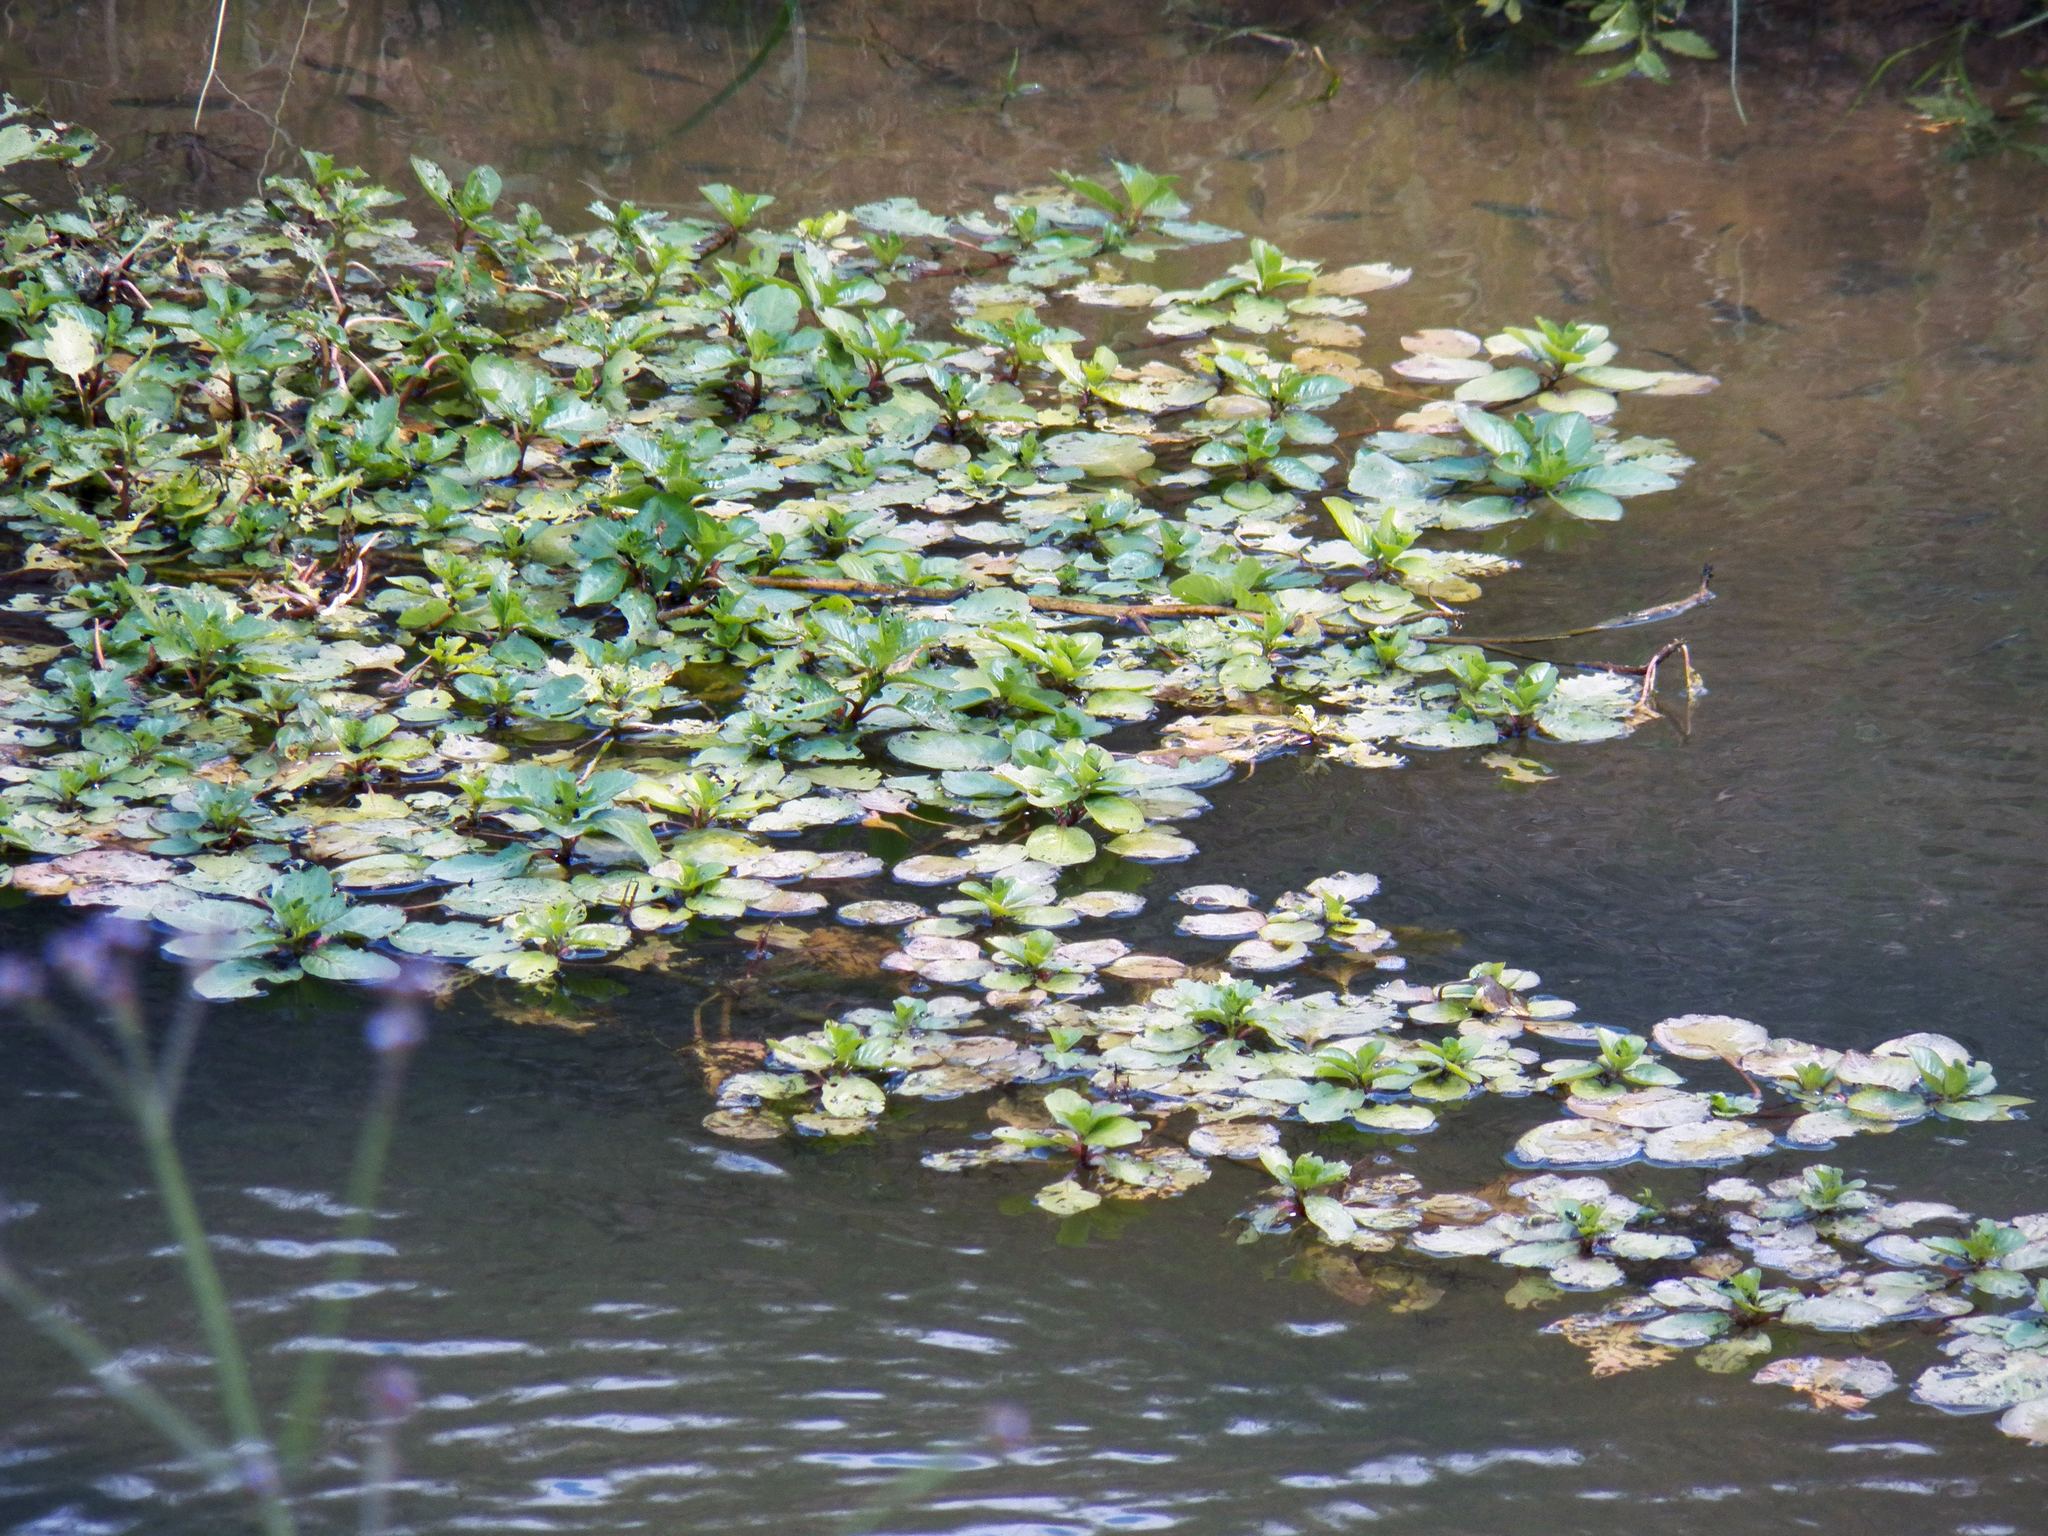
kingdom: Plantae
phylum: Tracheophyta
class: Magnoliopsida
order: Myrtales
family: Onagraceae
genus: Ludwigia
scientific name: Ludwigia peploides
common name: Floating primrose-willow
